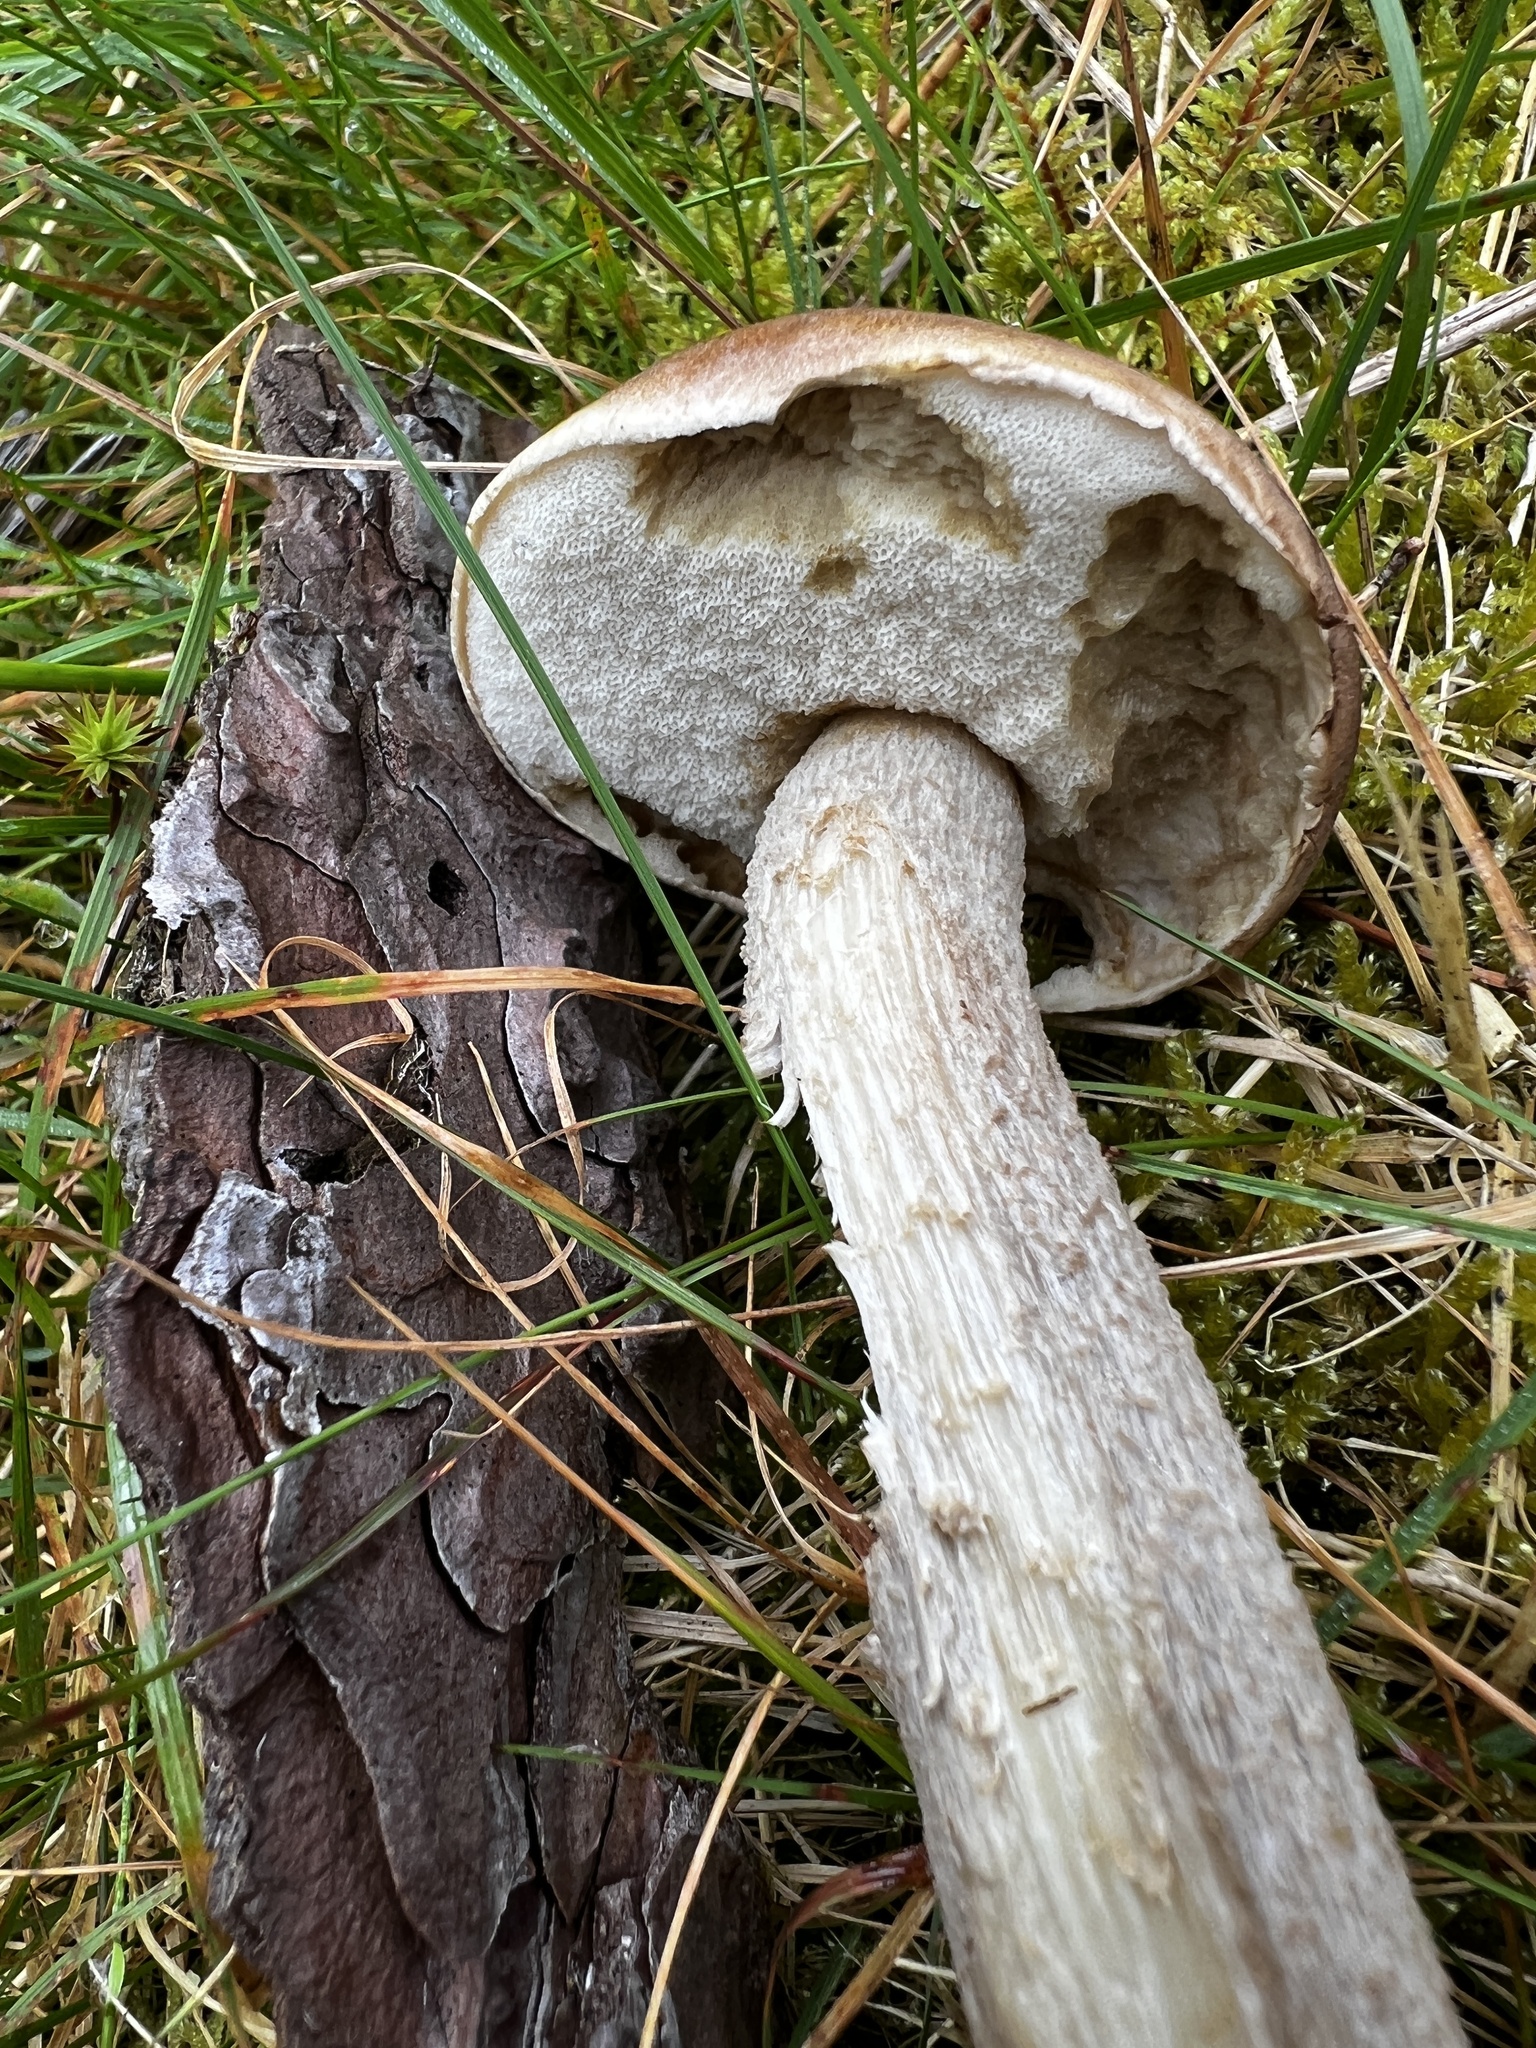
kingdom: Fungi
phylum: Basidiomycota
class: Agaricomycetes
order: Boletales
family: Boletaceae
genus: Leccinum
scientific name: Leccinum cyaneobasileucum
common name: Greyshank bolete
